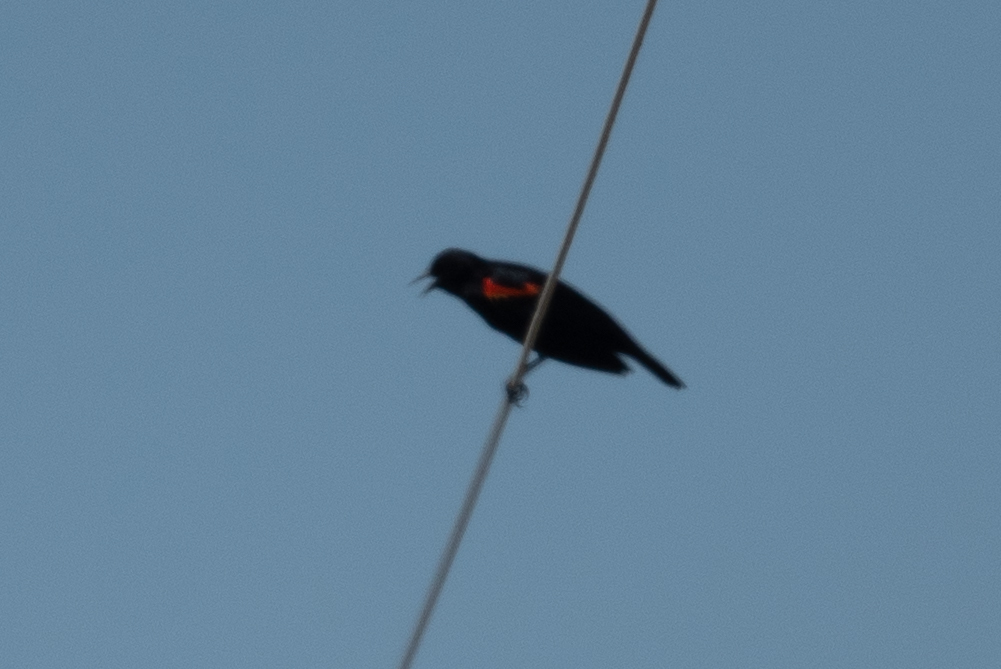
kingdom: Animalia
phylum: Chordata
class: Aves
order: Passeriformes
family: Icteridae
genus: Agelaius
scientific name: Agelaius phoeniceus
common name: Red-winged blackbird
